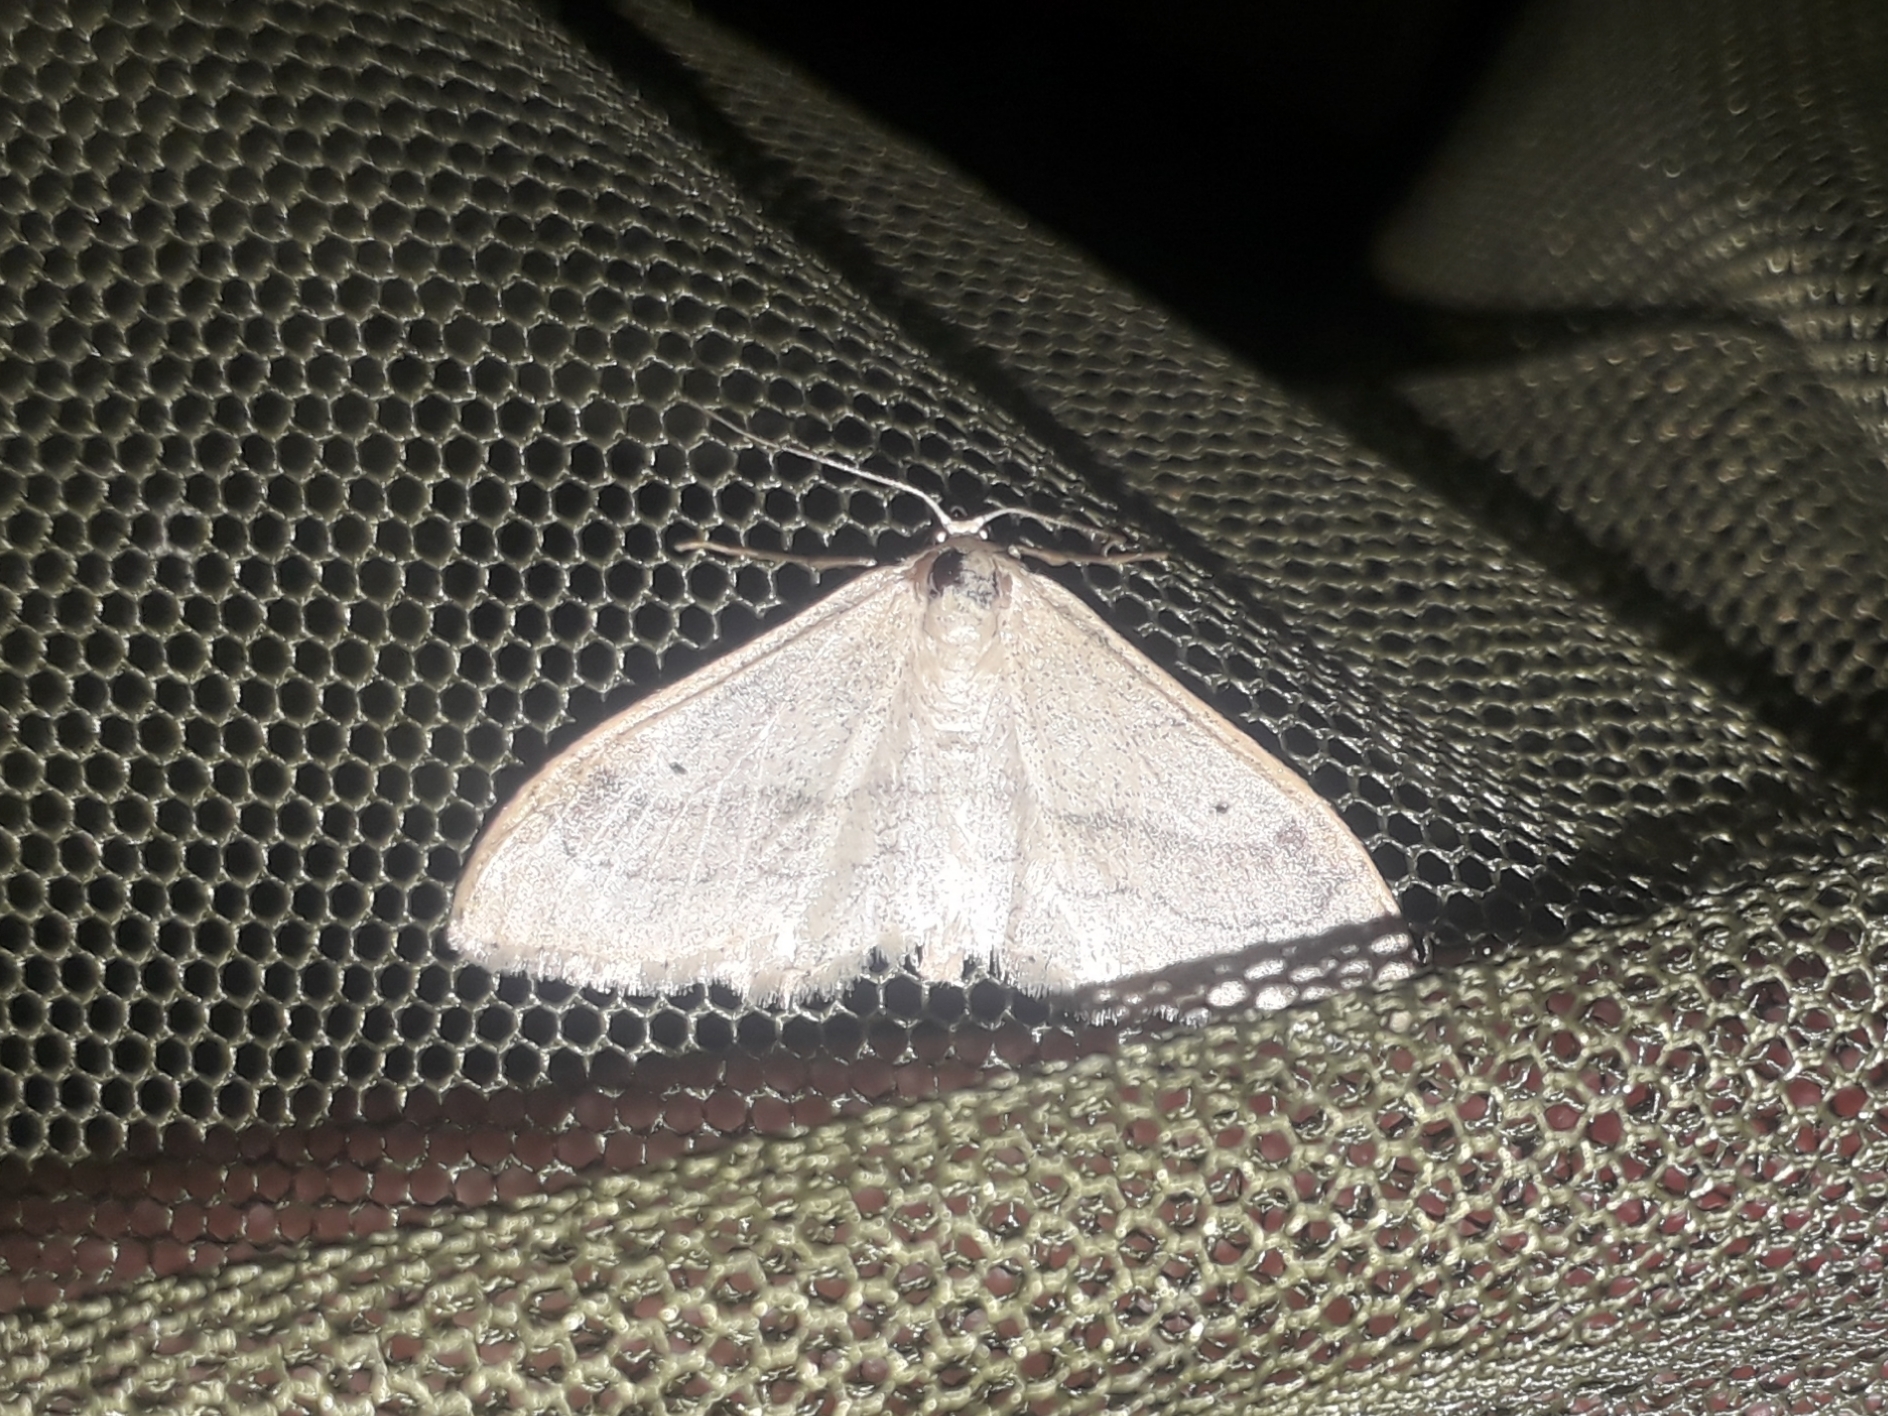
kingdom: Animalia
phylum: Arthropoda
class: Insecta
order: Lepidoptera
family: Geometridae
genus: Idaea
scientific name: Idaea aversata
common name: Riband wave
